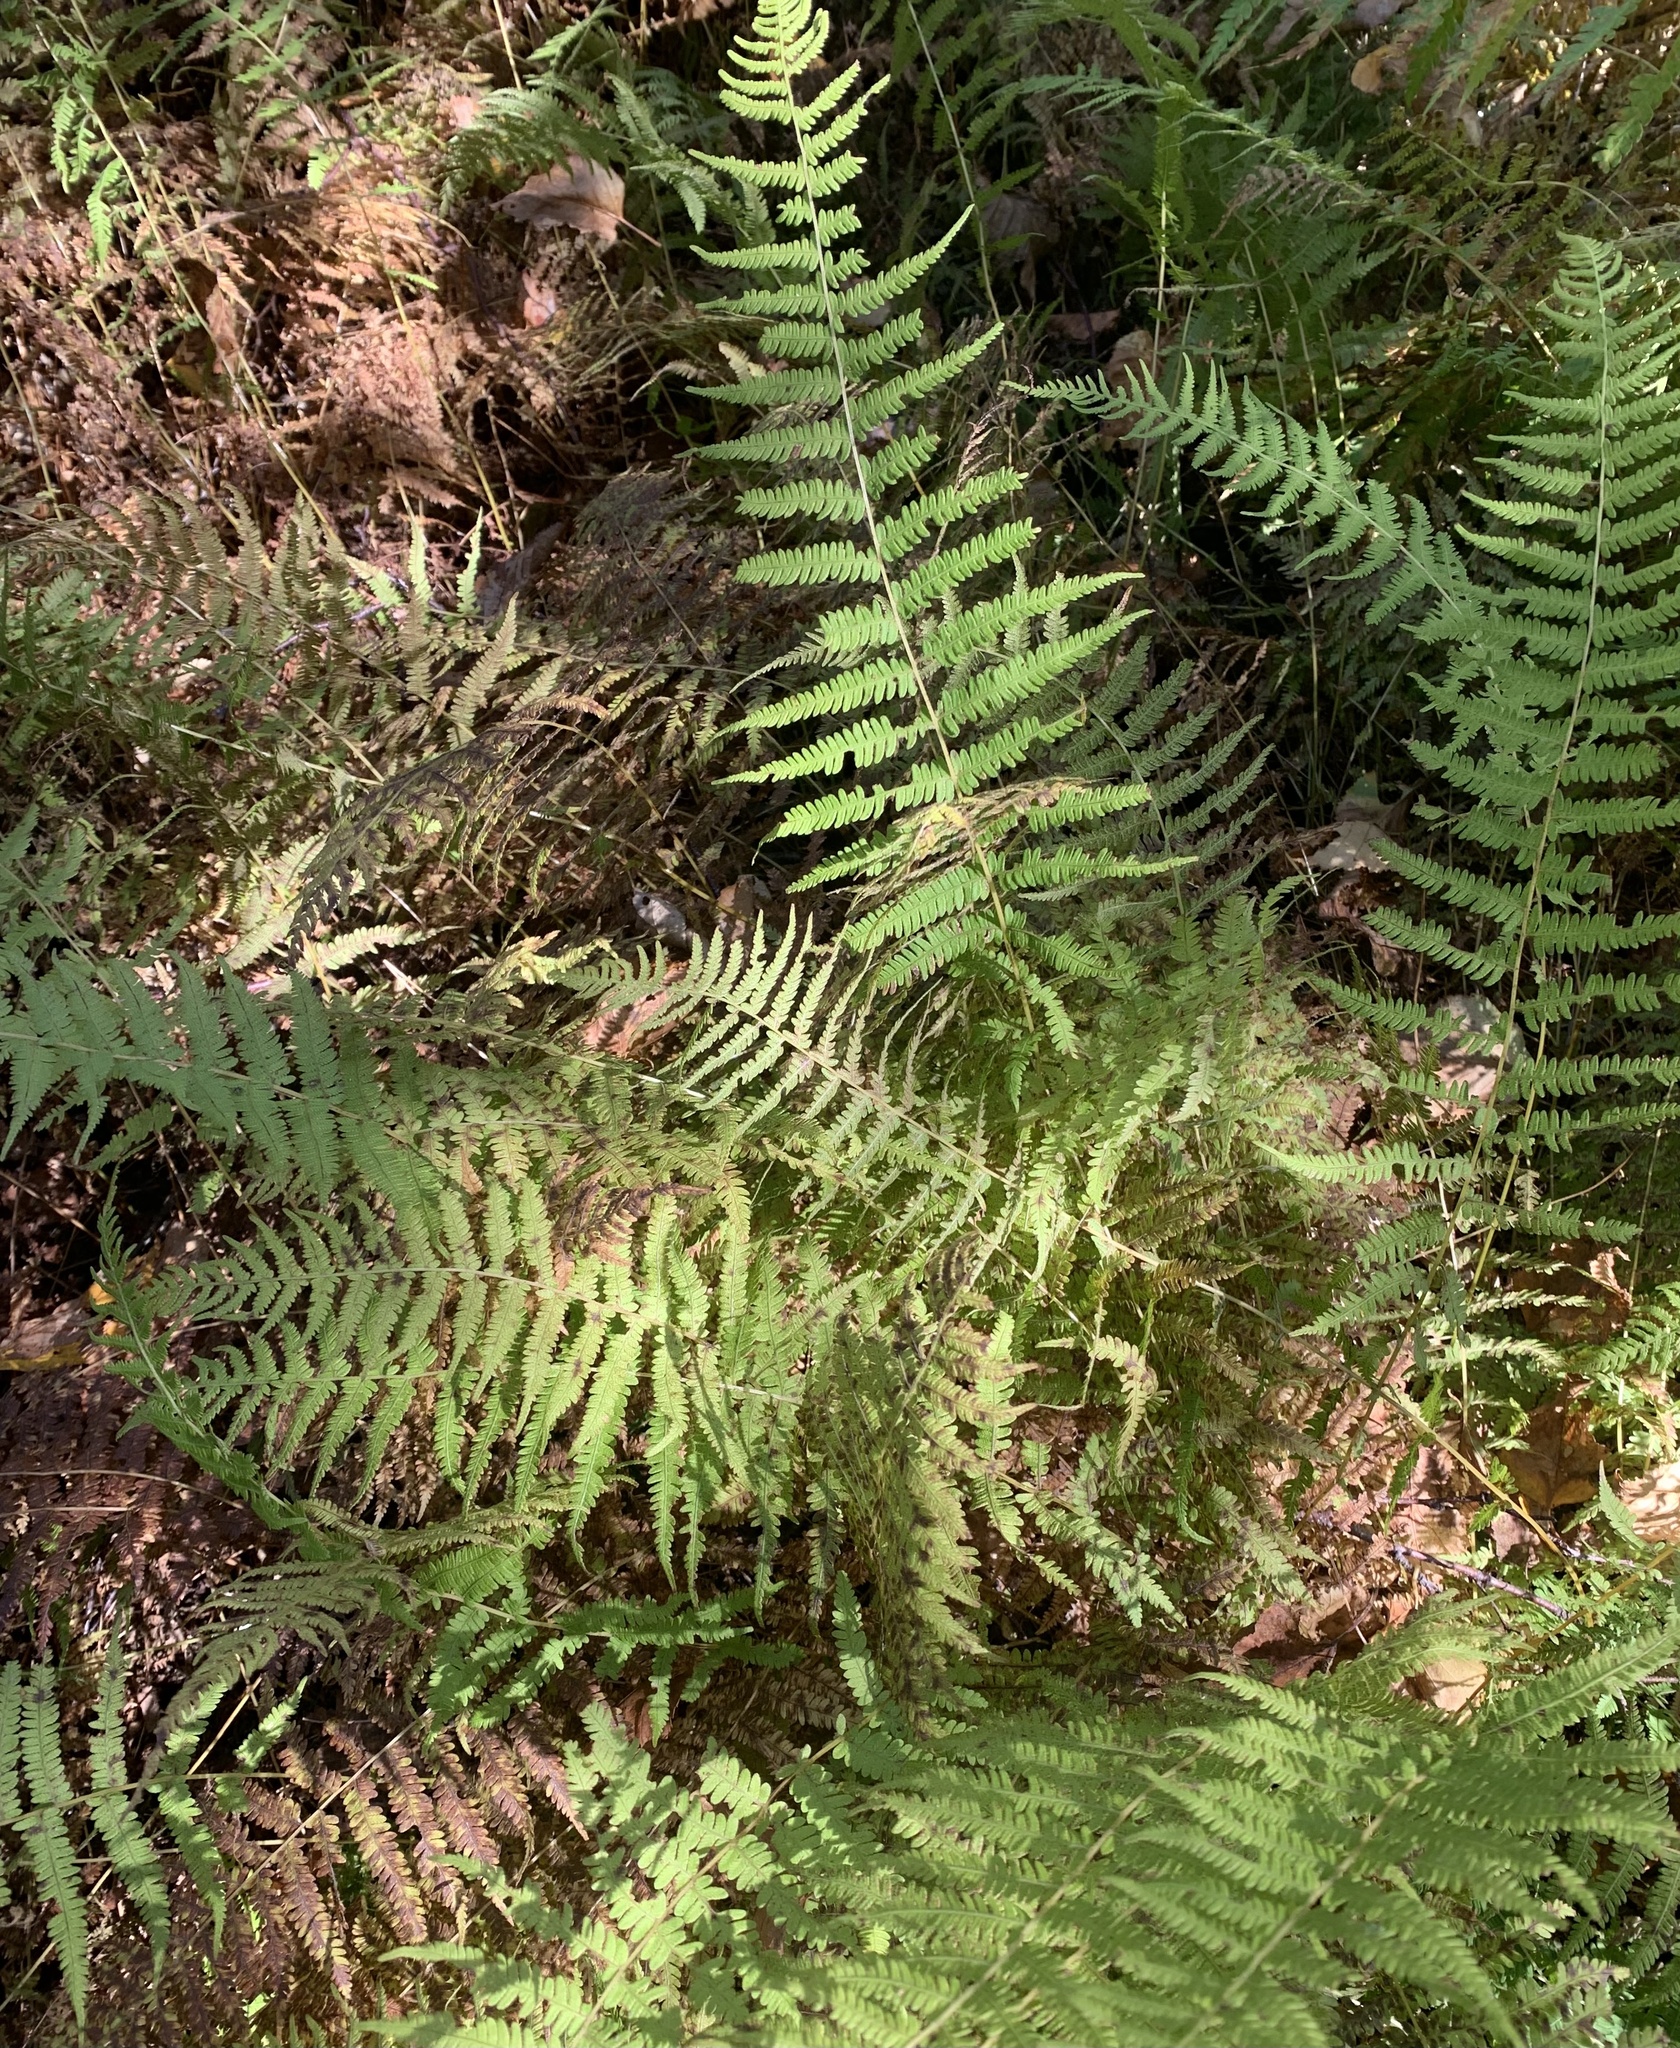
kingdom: Plantae
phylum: Tracheophyta
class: Polypodiopsida
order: Polypodiales
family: Thelypteridaceae
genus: Amauropelta
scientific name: Amauropelta noveboracensis
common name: New york fern
